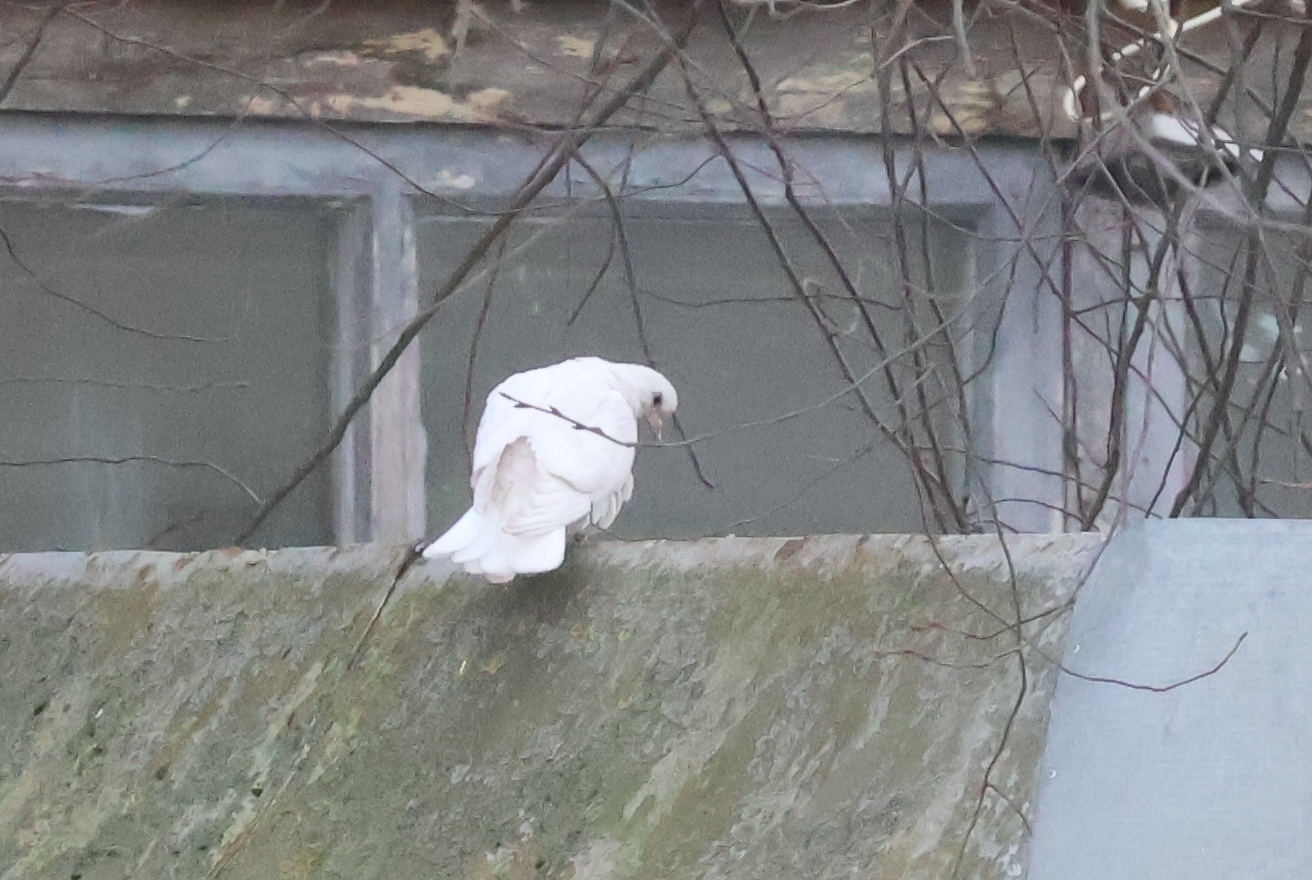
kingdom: Animalia
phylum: Chordata
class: Aves
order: Columbiformes
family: Columbidae
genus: Columba
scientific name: Columba livia
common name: Rock pigeon
